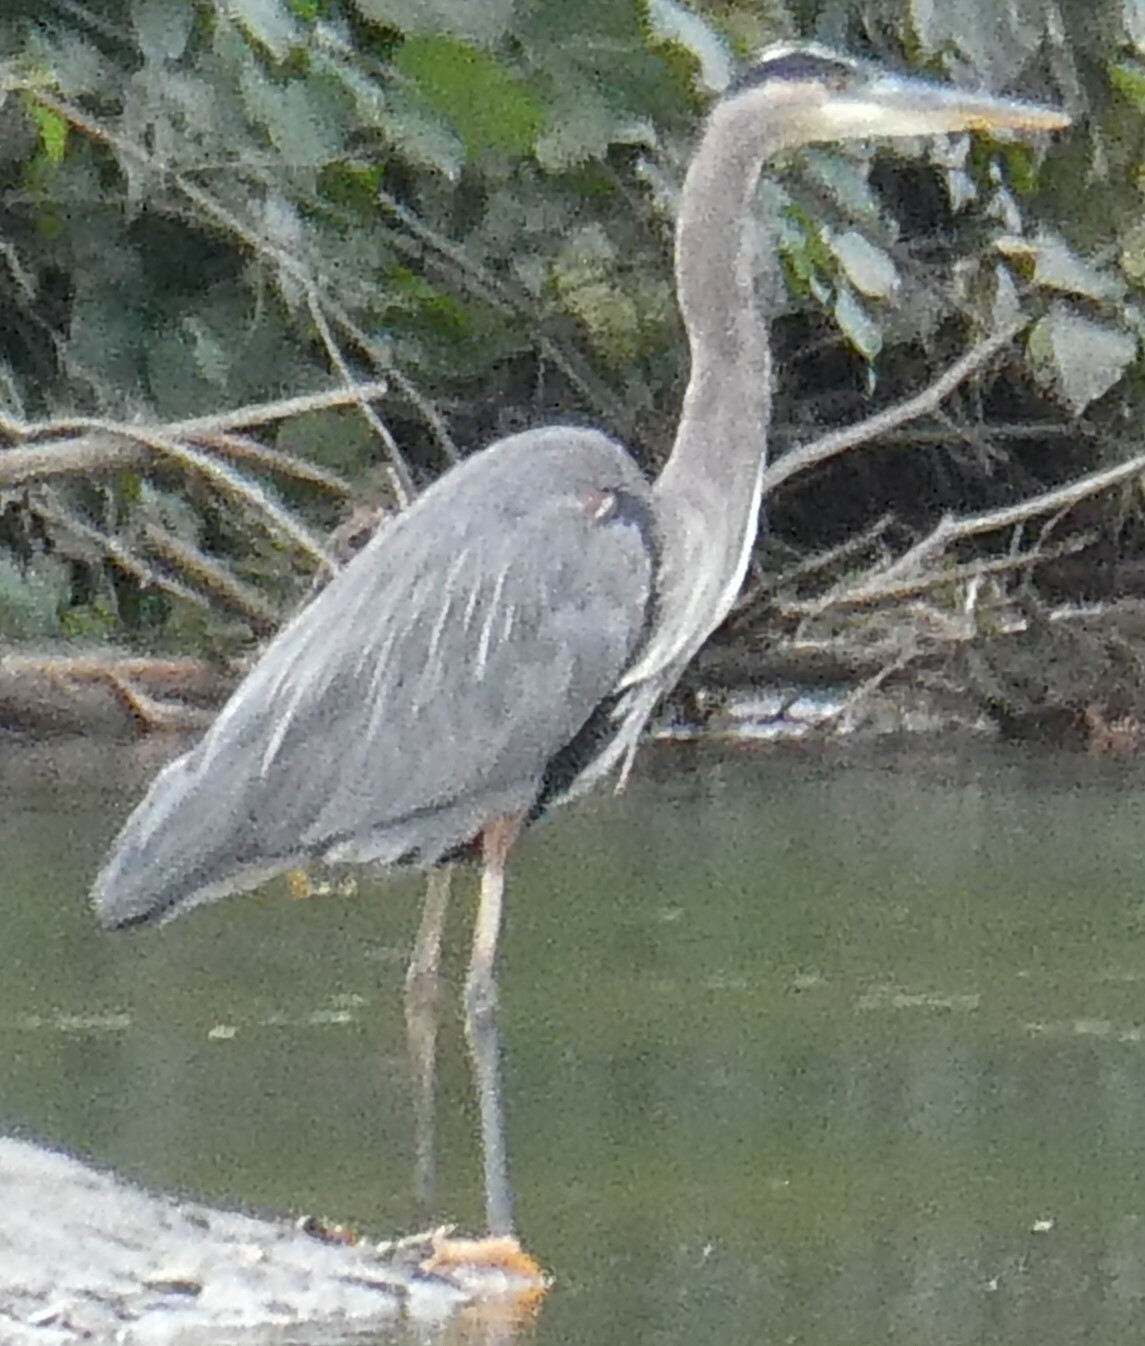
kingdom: Animalia
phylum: Chordata
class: Aves
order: Pelecaniformes
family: Ardeidae
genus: Ardea
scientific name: Ardea herodias
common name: Great blue heron
